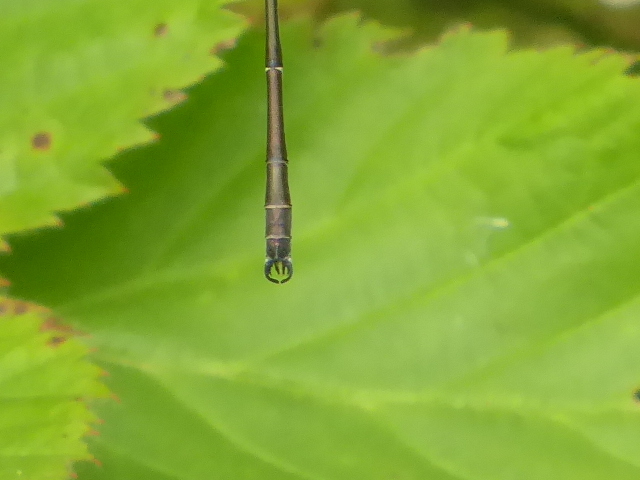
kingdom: Animalia
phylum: Arthropoda
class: Insecta
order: Odonata
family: Lestidae
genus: Lestes
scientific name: Lestes rectangularis
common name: Slender spreadwing
